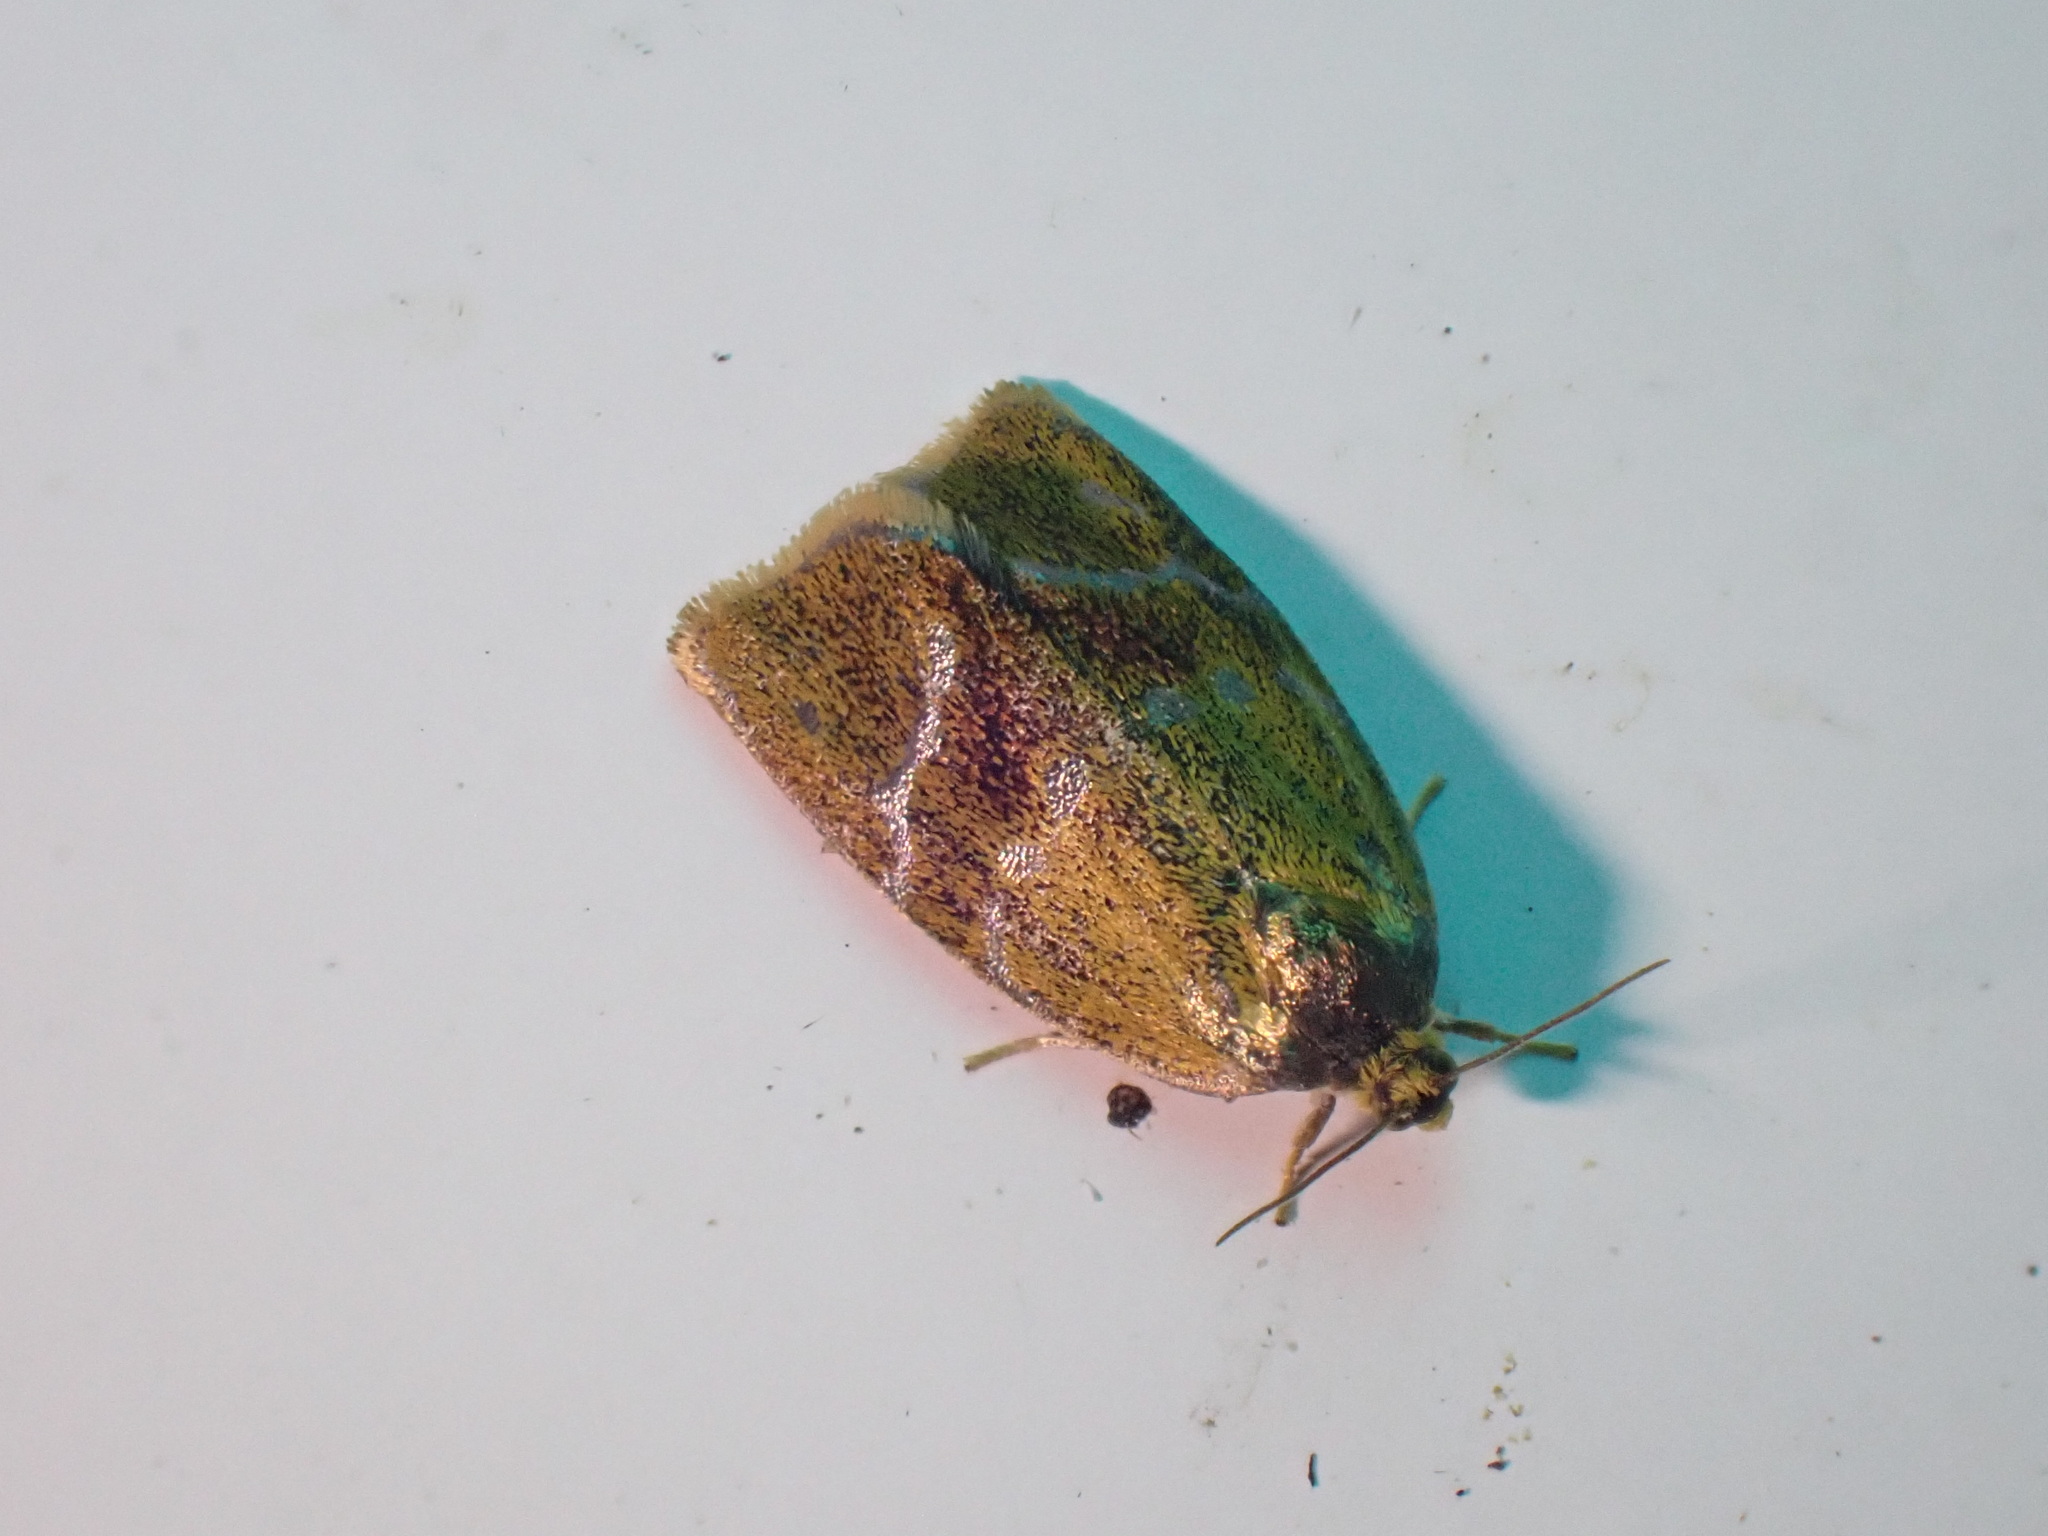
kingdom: Animalia
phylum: Arthropoda
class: Insecta
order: Lepidoptera
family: Tortricidae
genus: Ptycholoma
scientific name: Ptycholoma lecheana
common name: Leches twist moth
